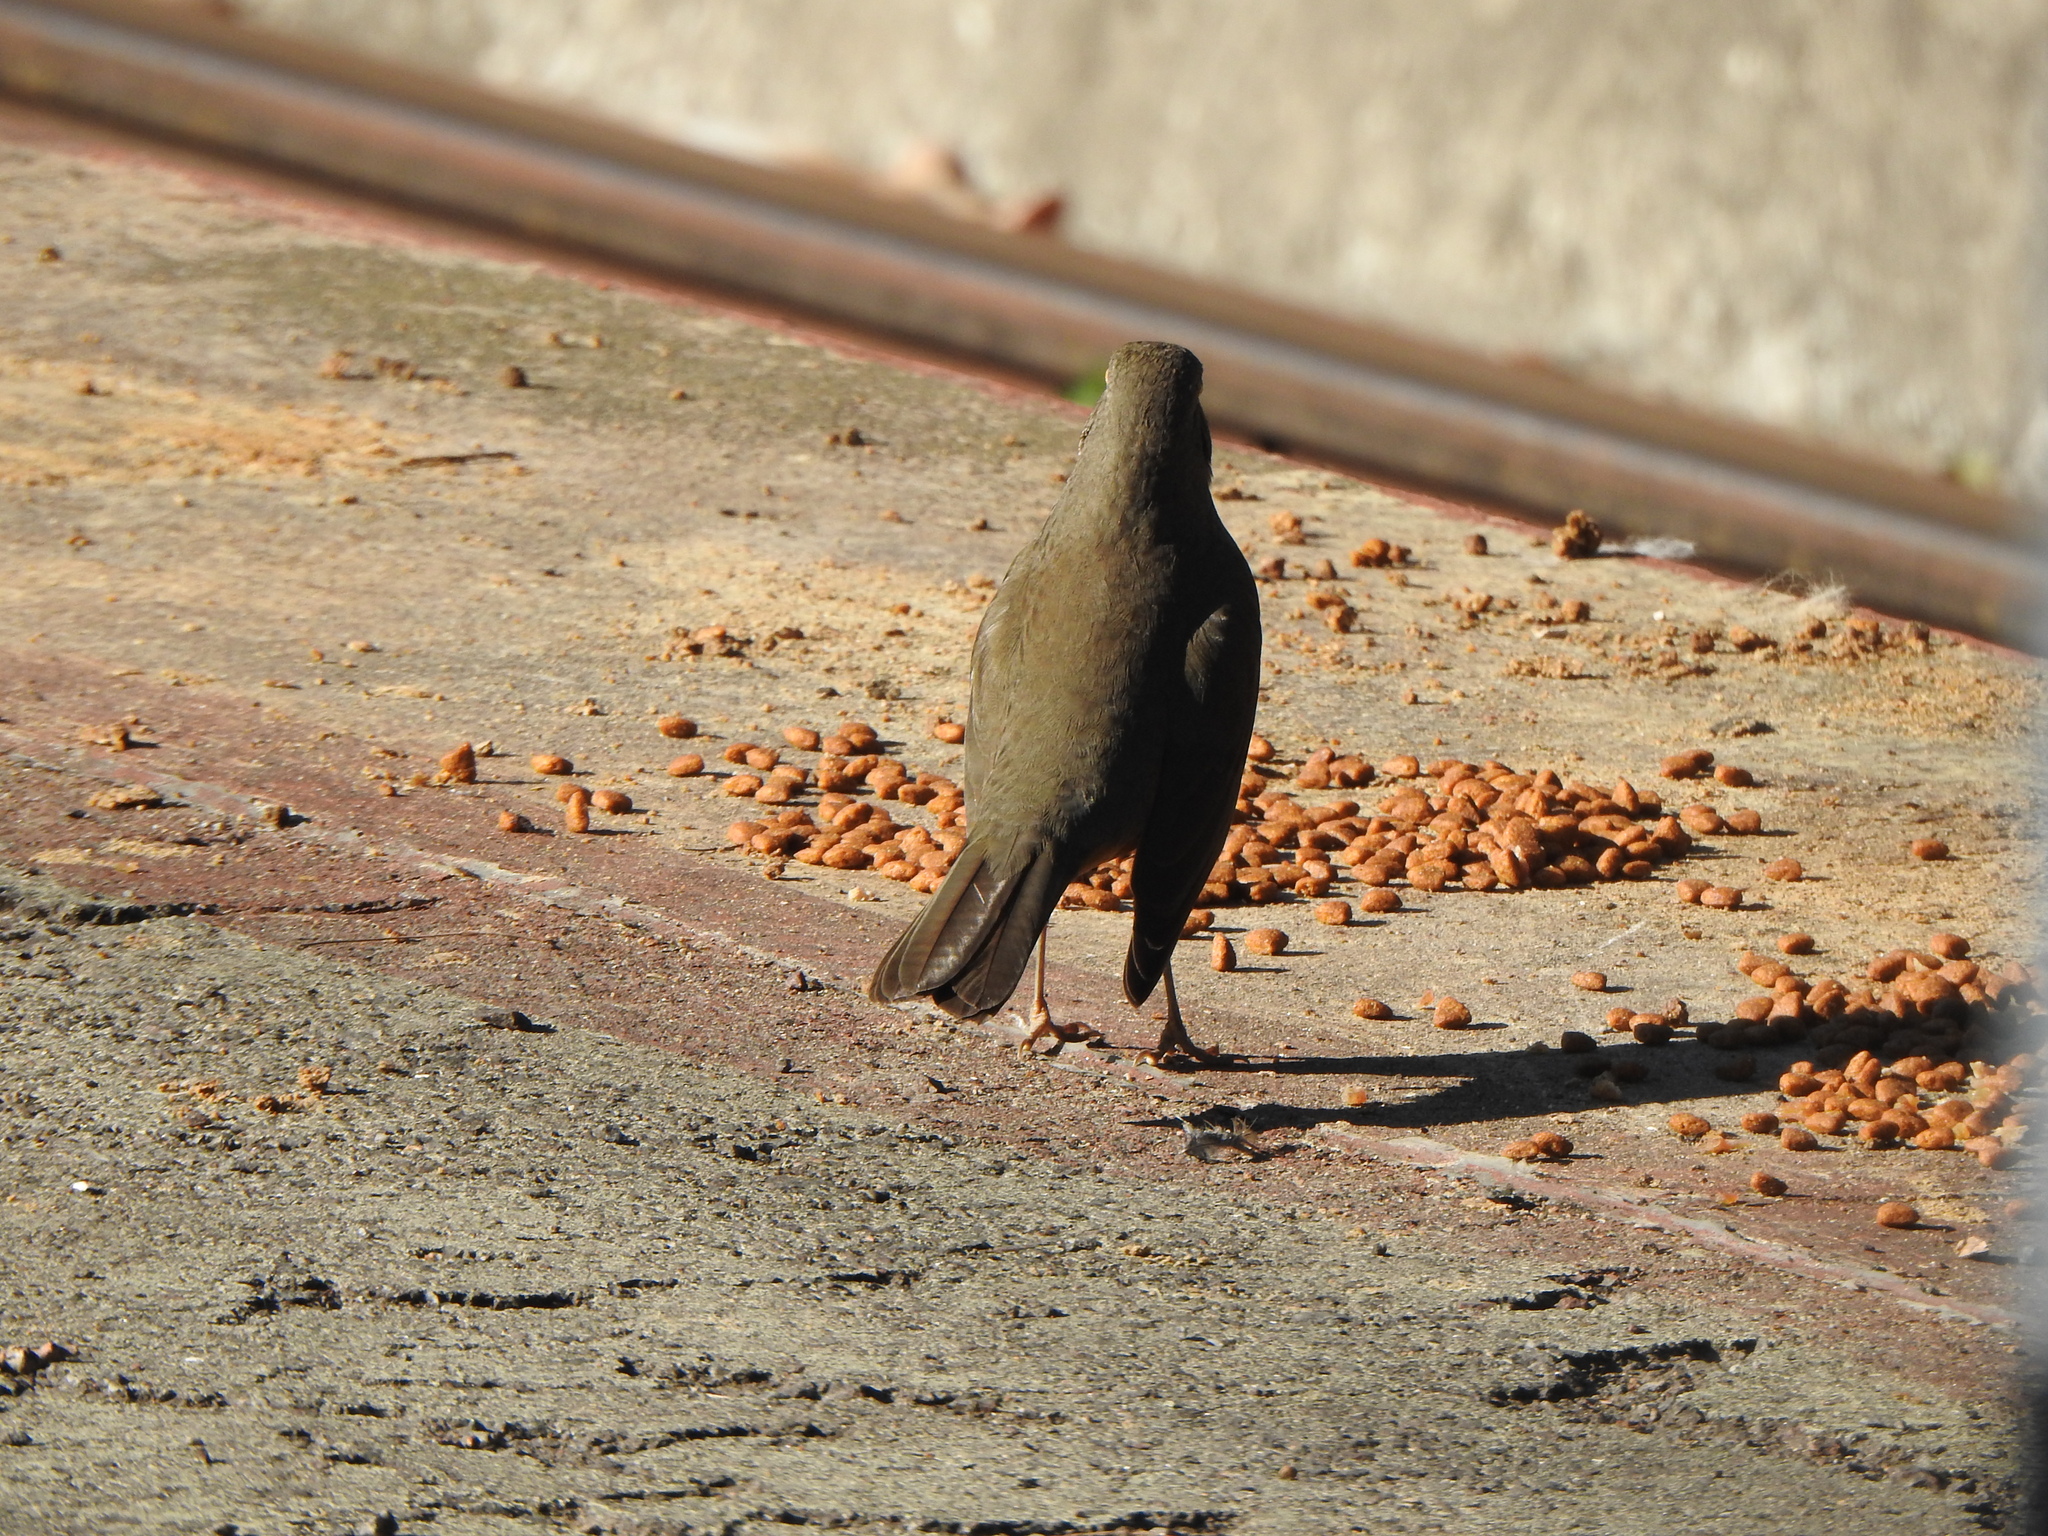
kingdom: Animalia
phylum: Chordata
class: Aves
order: Passeriformes
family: Turdidae
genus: Turdus
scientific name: Turdus rufiventris
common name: Rufous-bellied thrush
